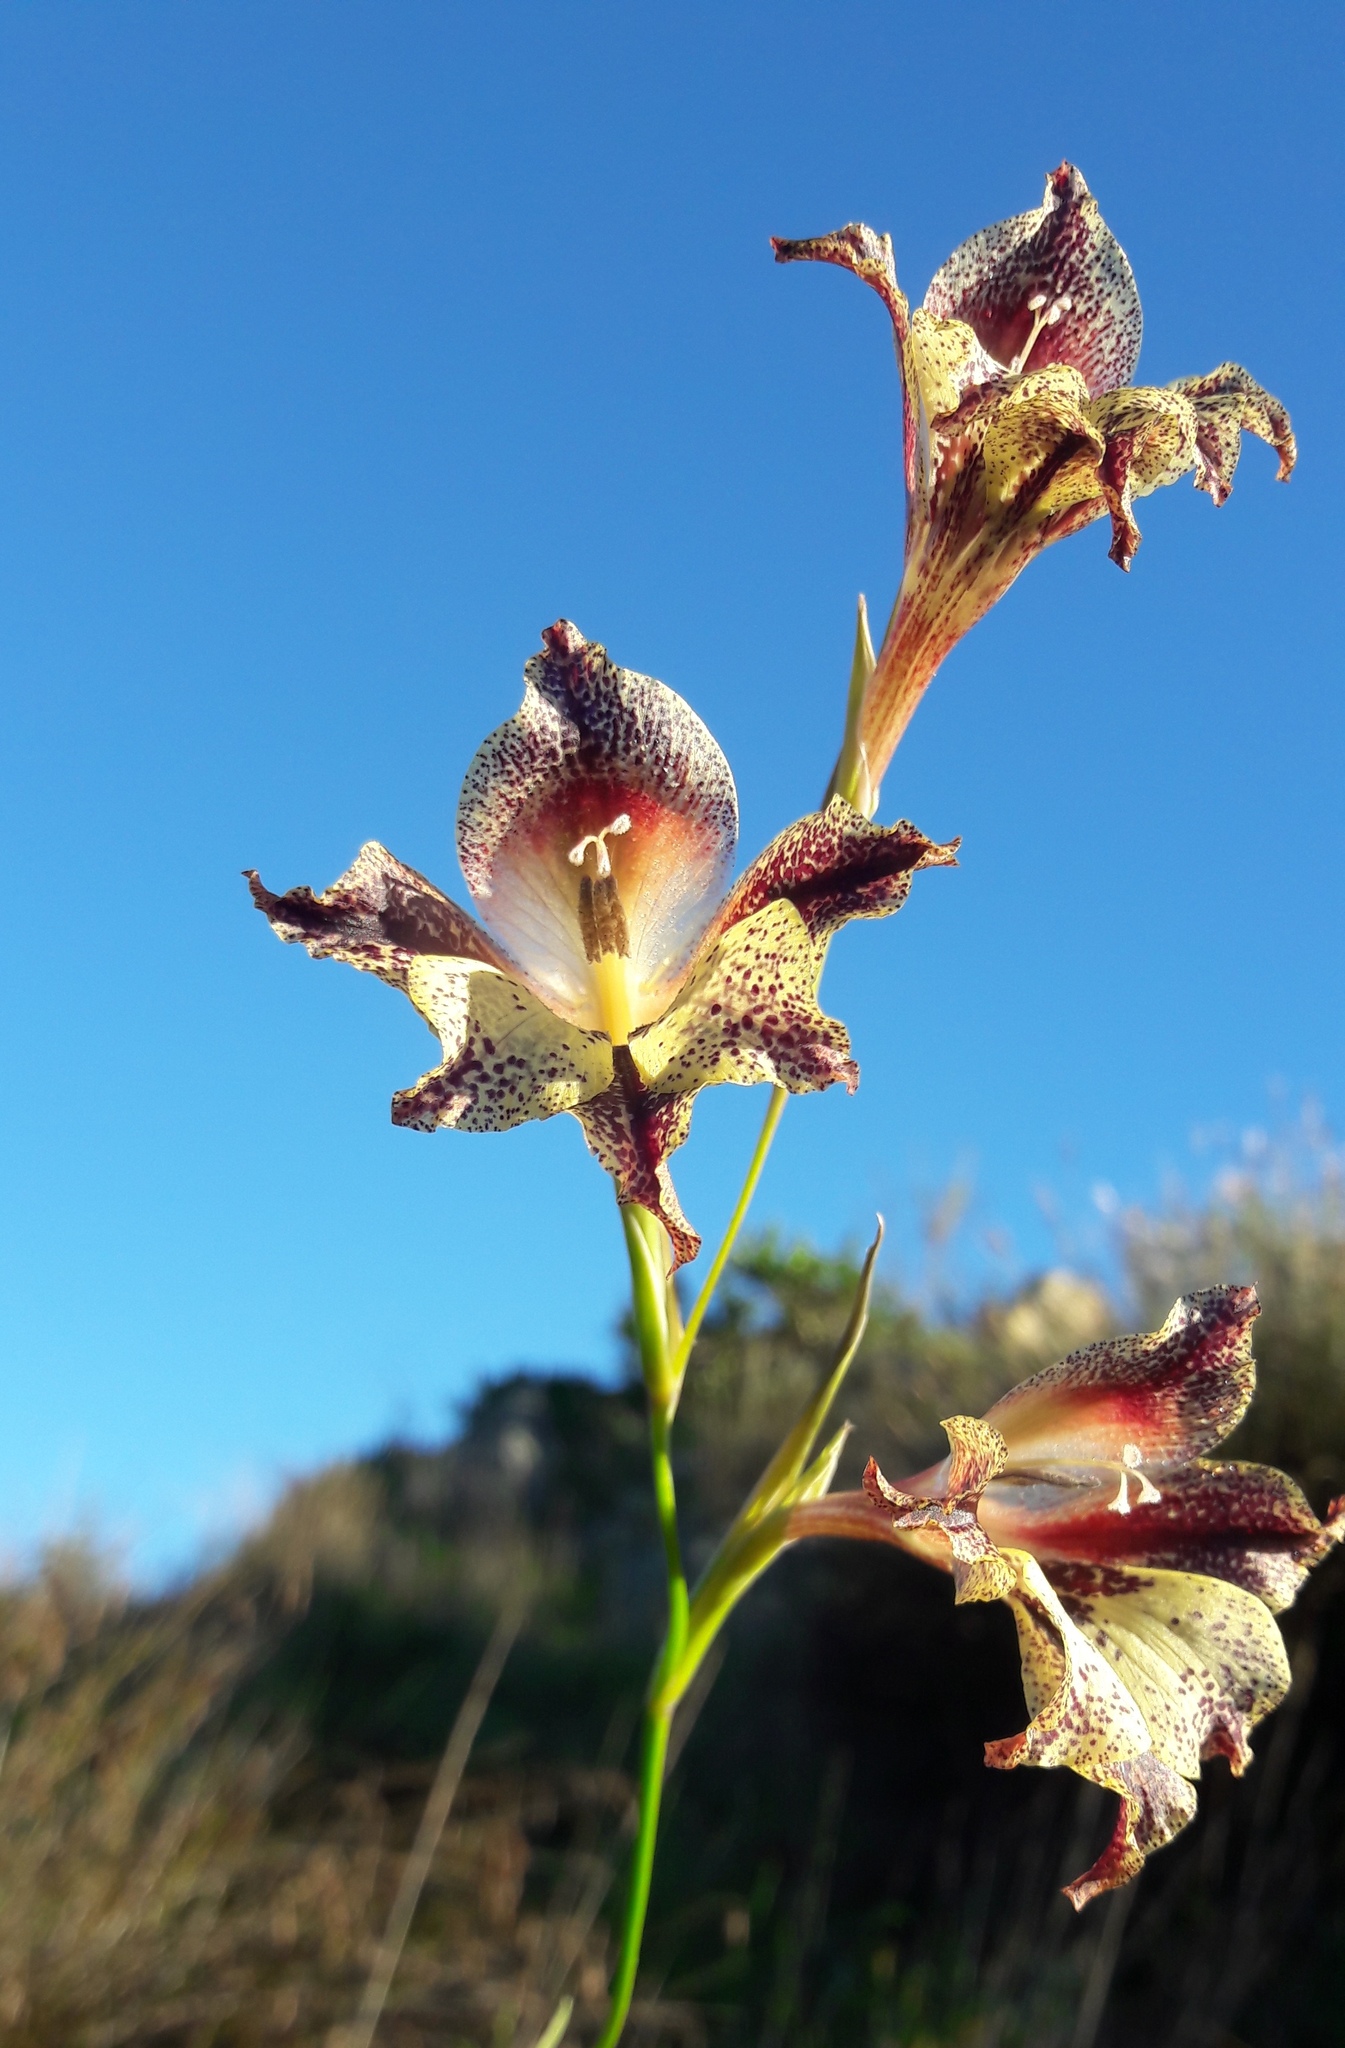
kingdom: Plantae
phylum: Tracheophyta
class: Liliopsida
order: Asparagales
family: Iridaceae
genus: Gladiolus
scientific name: Gladiolus maculatus
